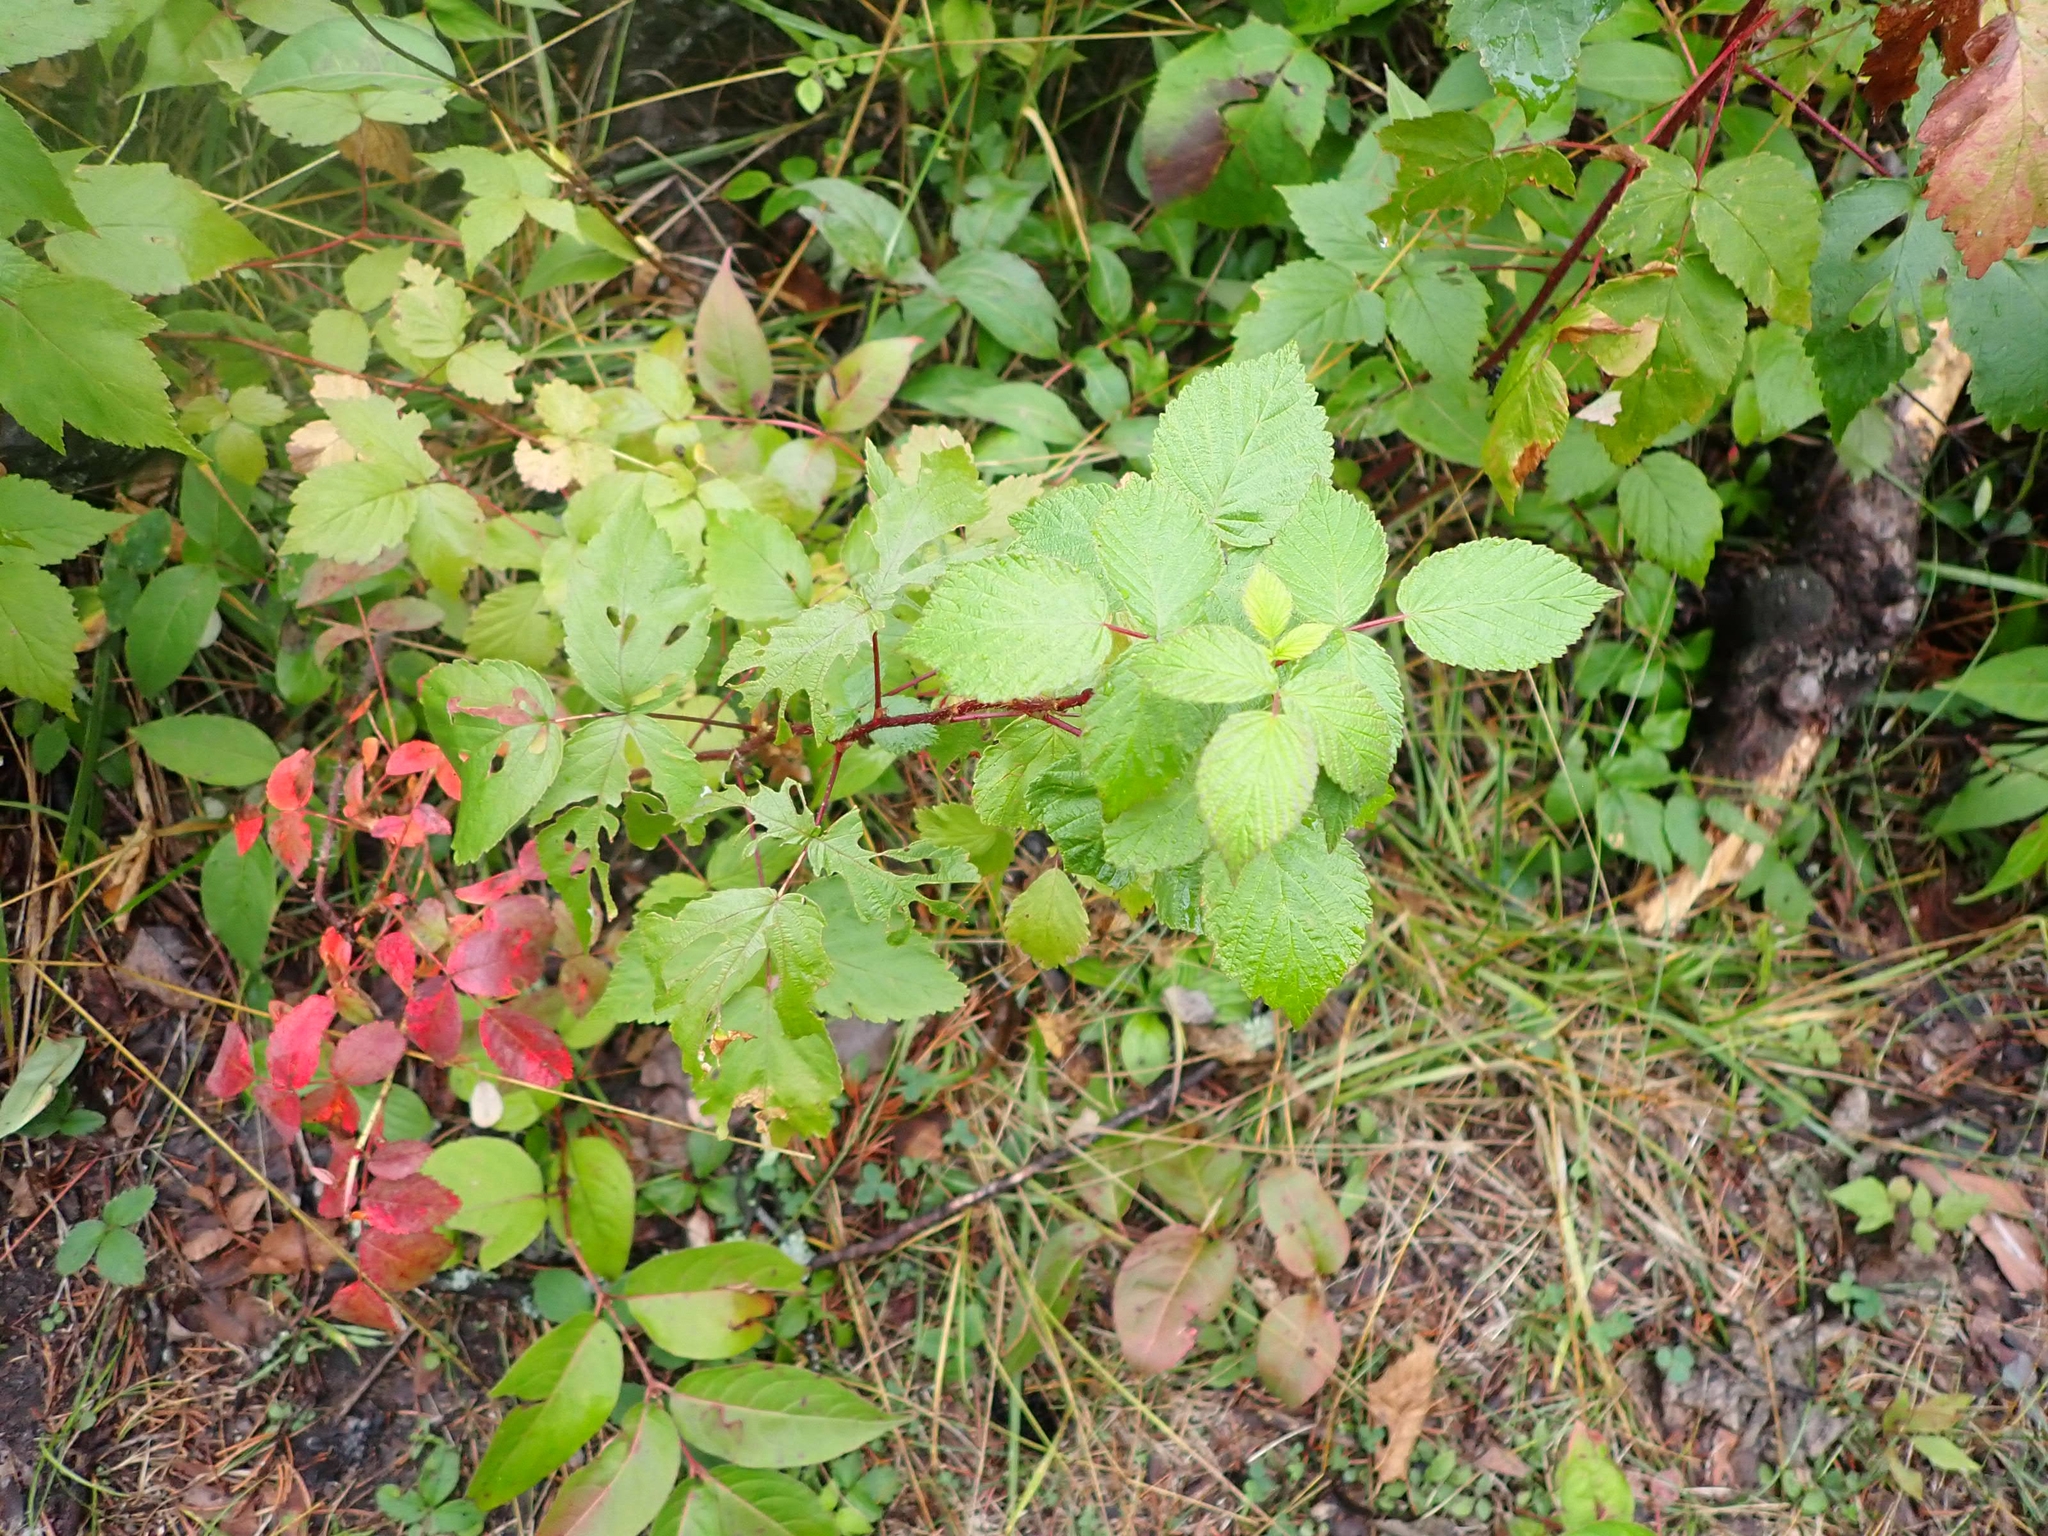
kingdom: Plantae
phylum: Tracheophyta
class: Magnoliopsida
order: Rosales
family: Rosaceae
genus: Rubus
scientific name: Rubus idaeus
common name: Raspberry
